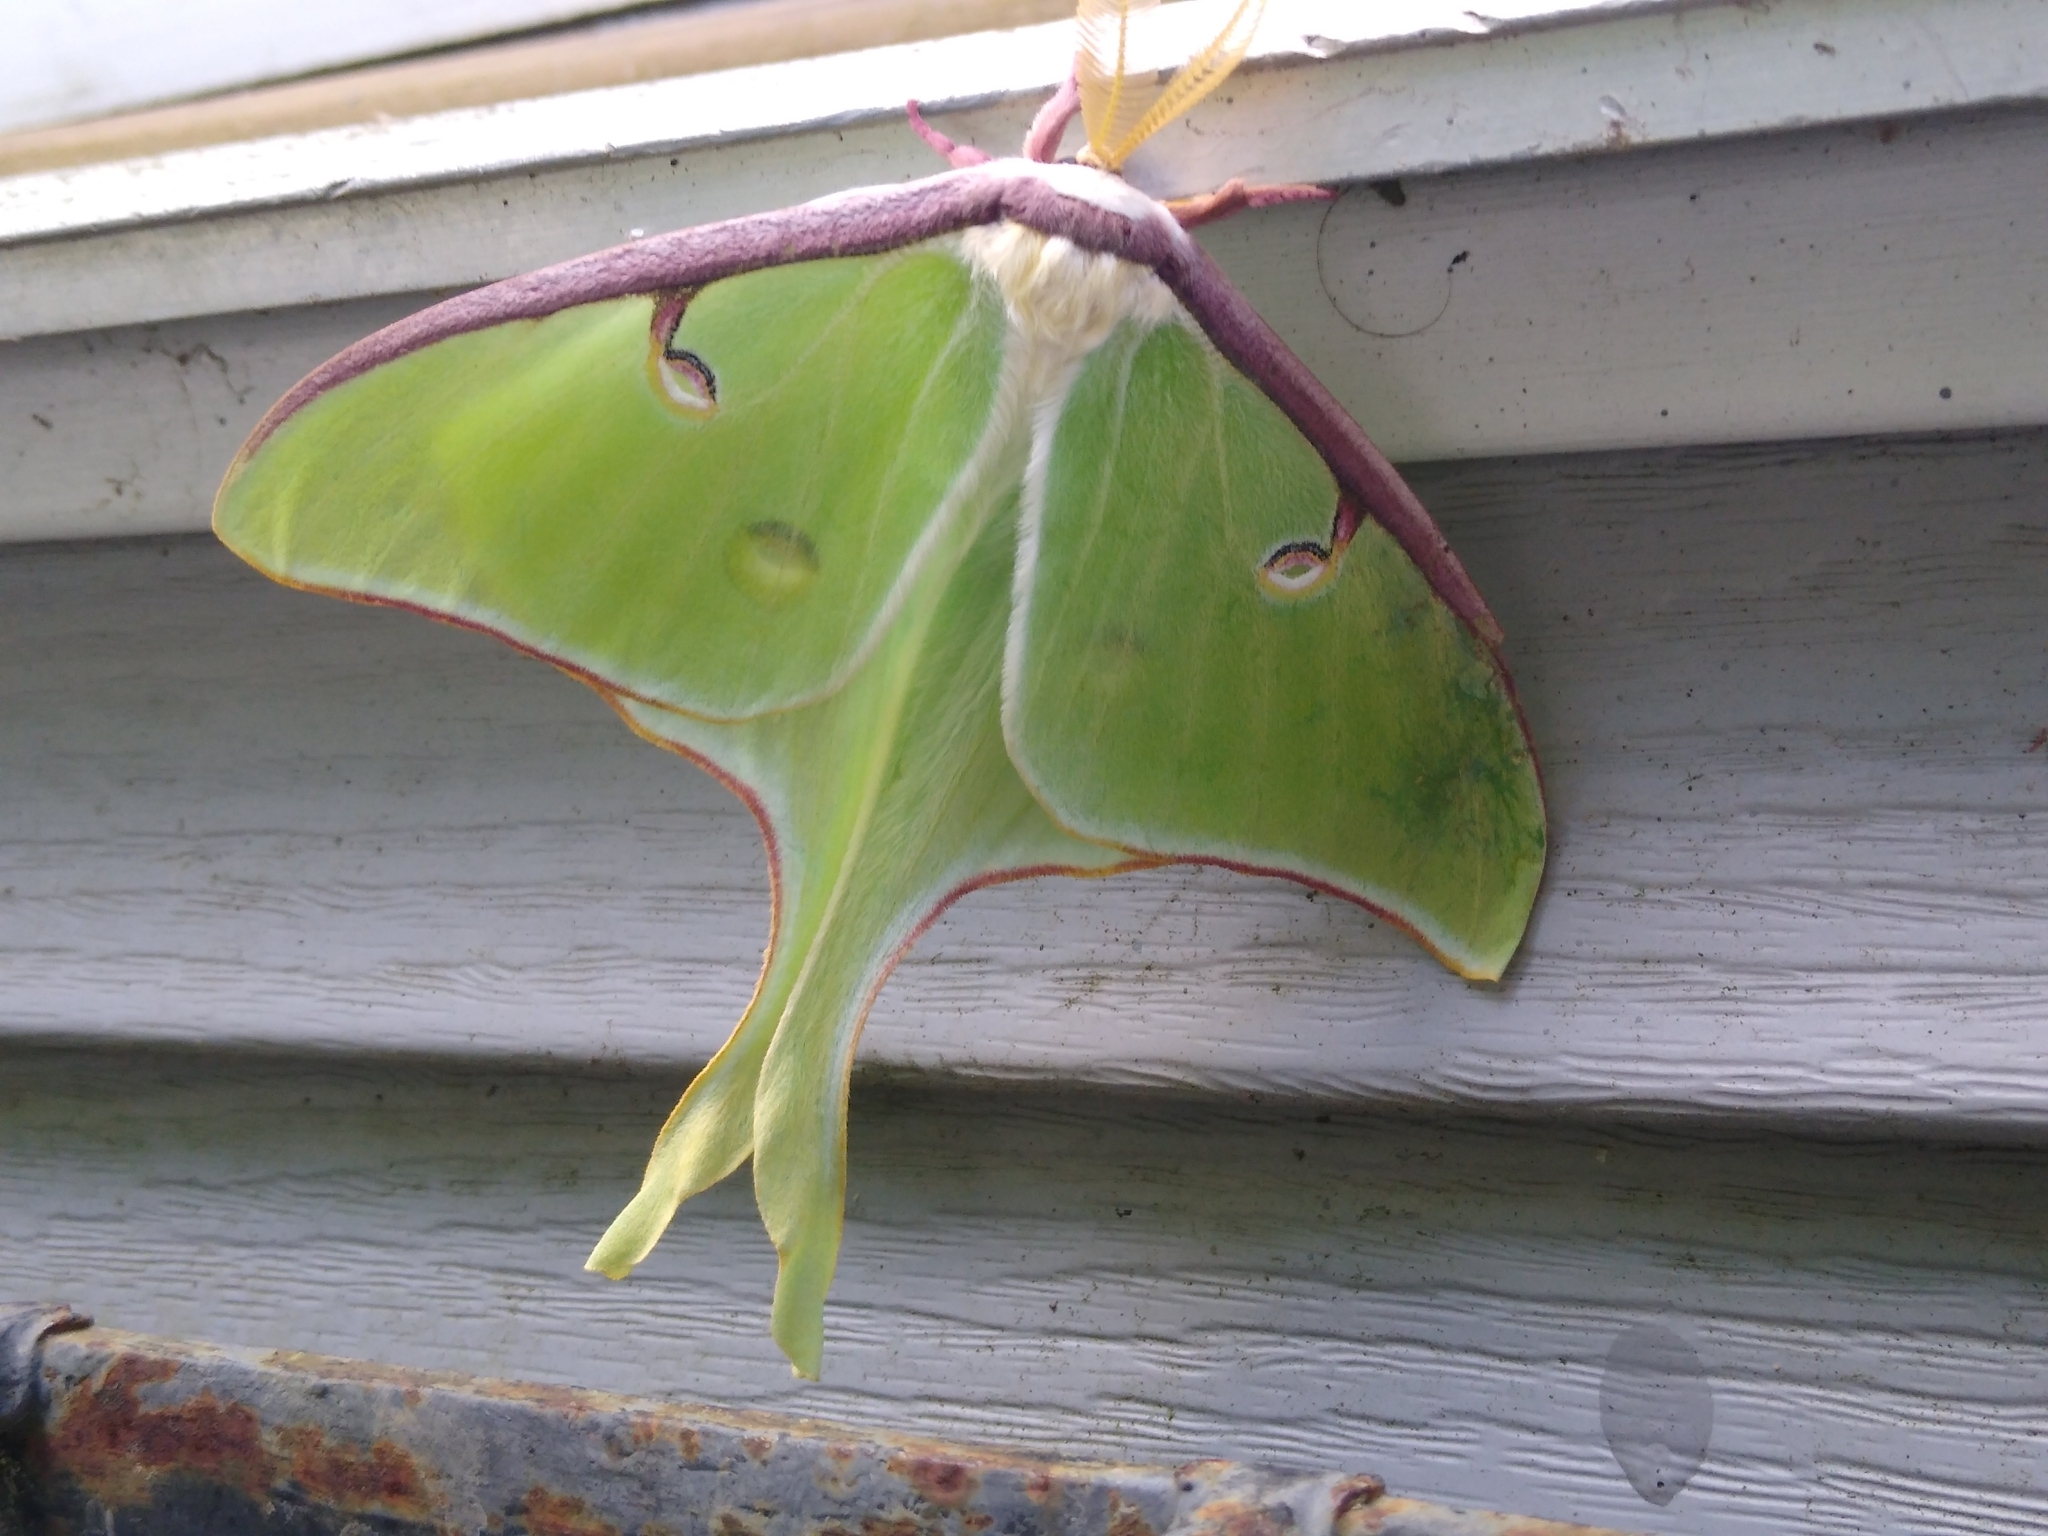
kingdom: Animalia
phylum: Arthropoda
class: Insecta
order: Lepidoptera
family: Saturniidae
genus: Actias
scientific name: Actias luna
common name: Luna moth
